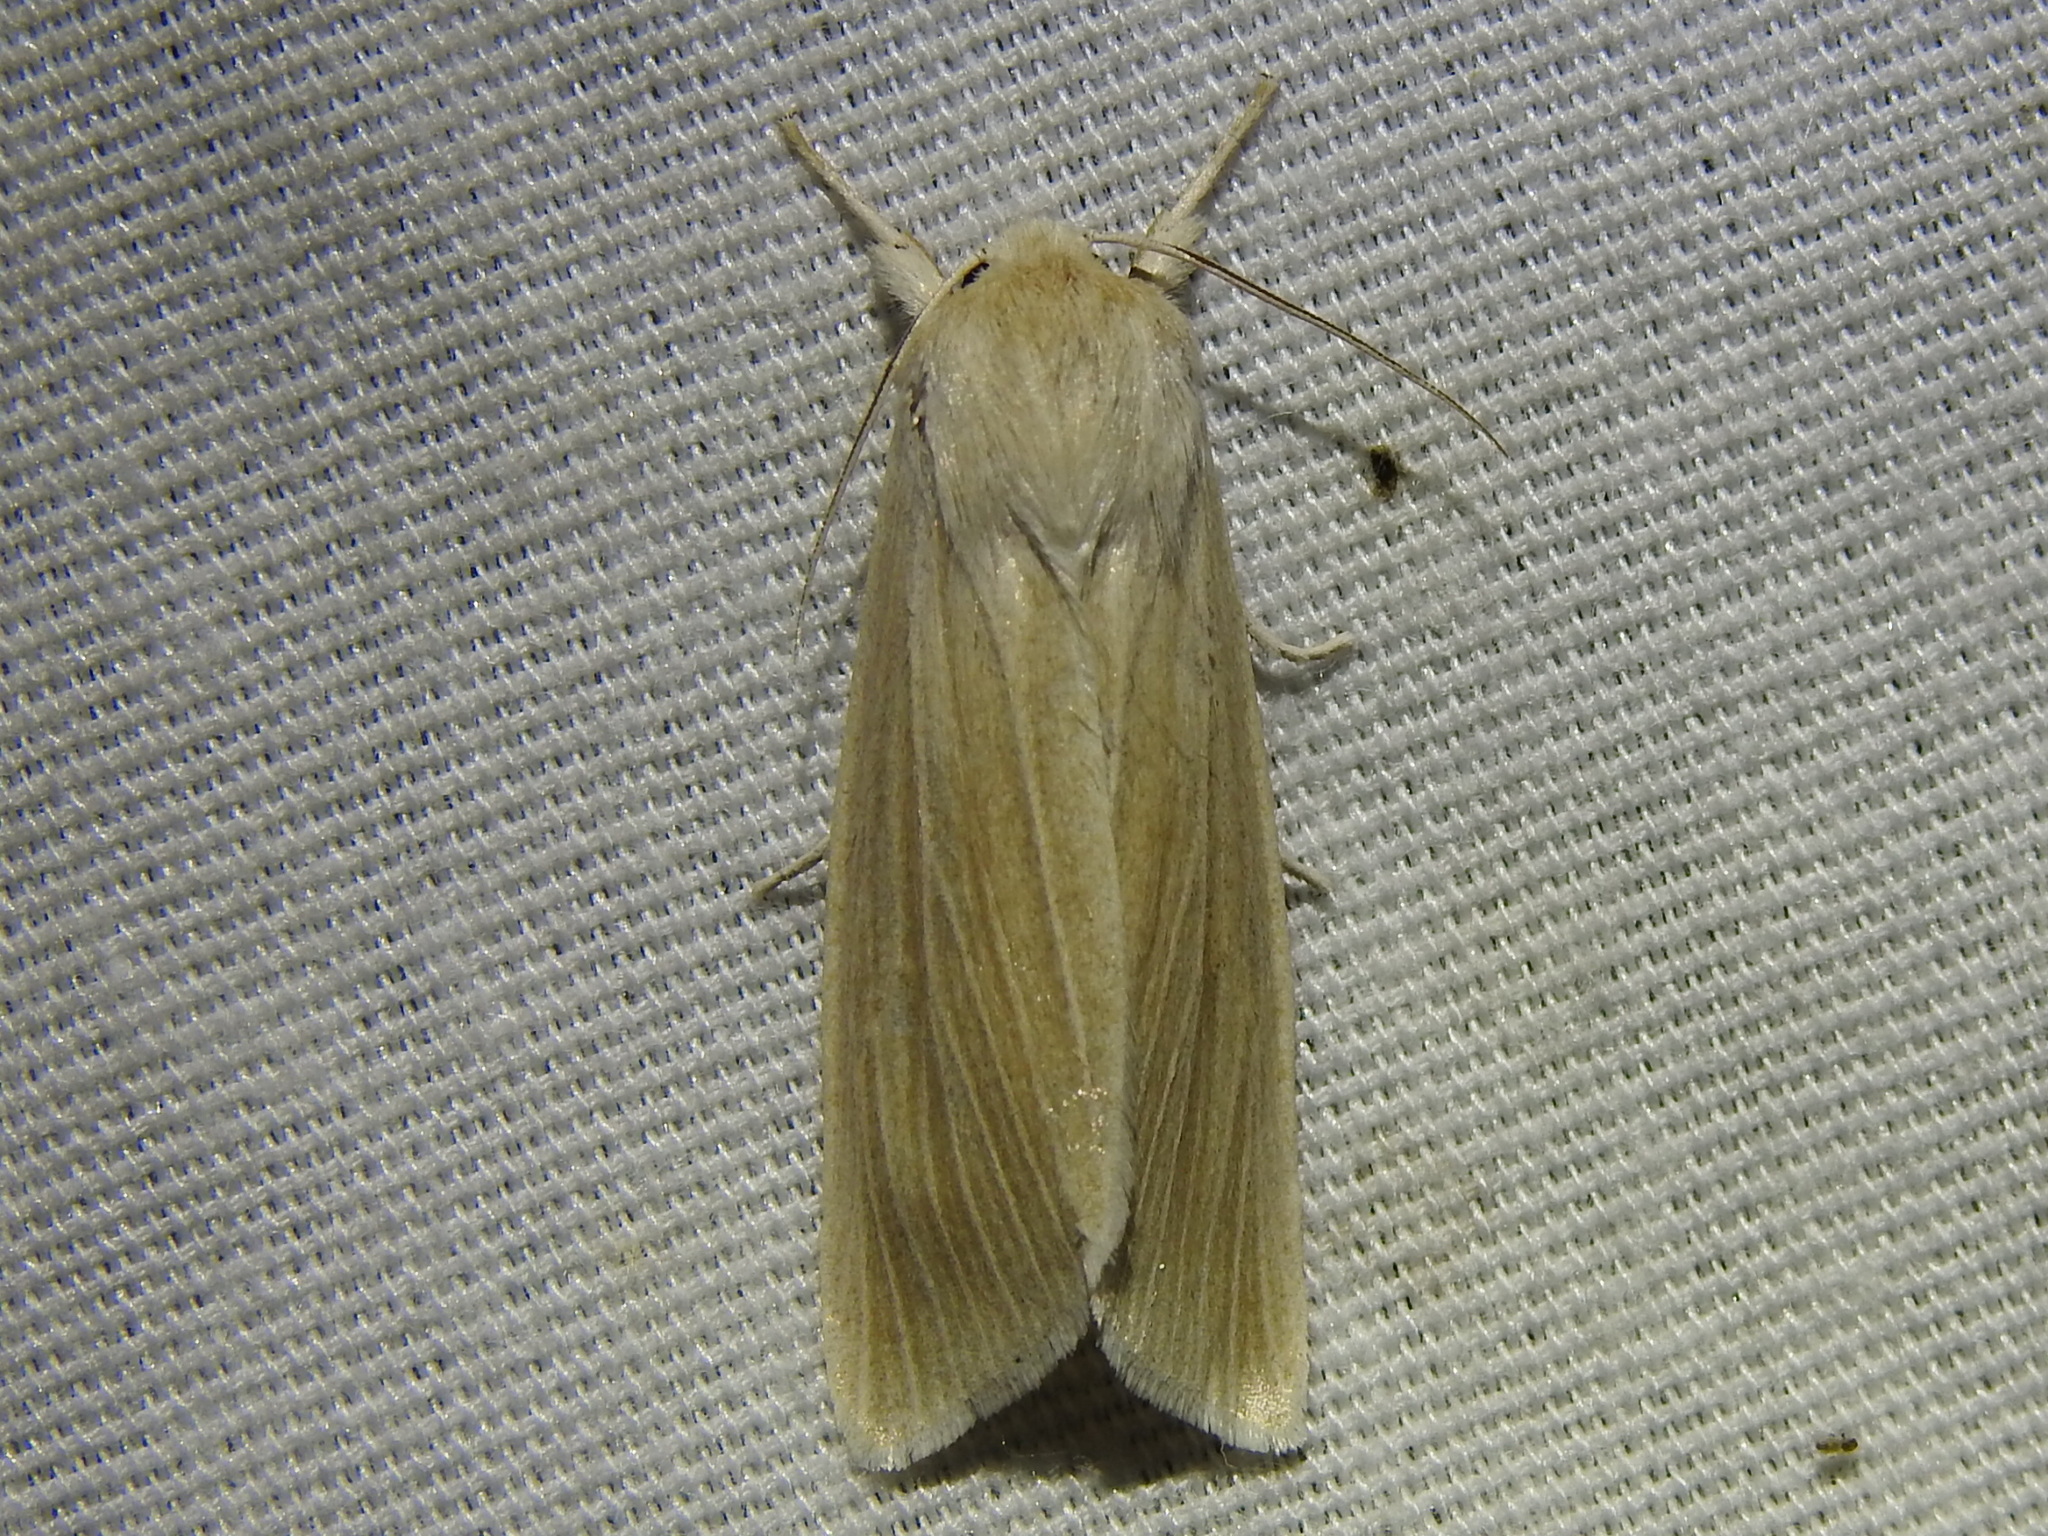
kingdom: Animalia
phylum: Arthropoda
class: Insecta
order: Lepidoptera
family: Noctuidae
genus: Acronicta
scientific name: Acronicta insularis
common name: Henry's marsh moth
